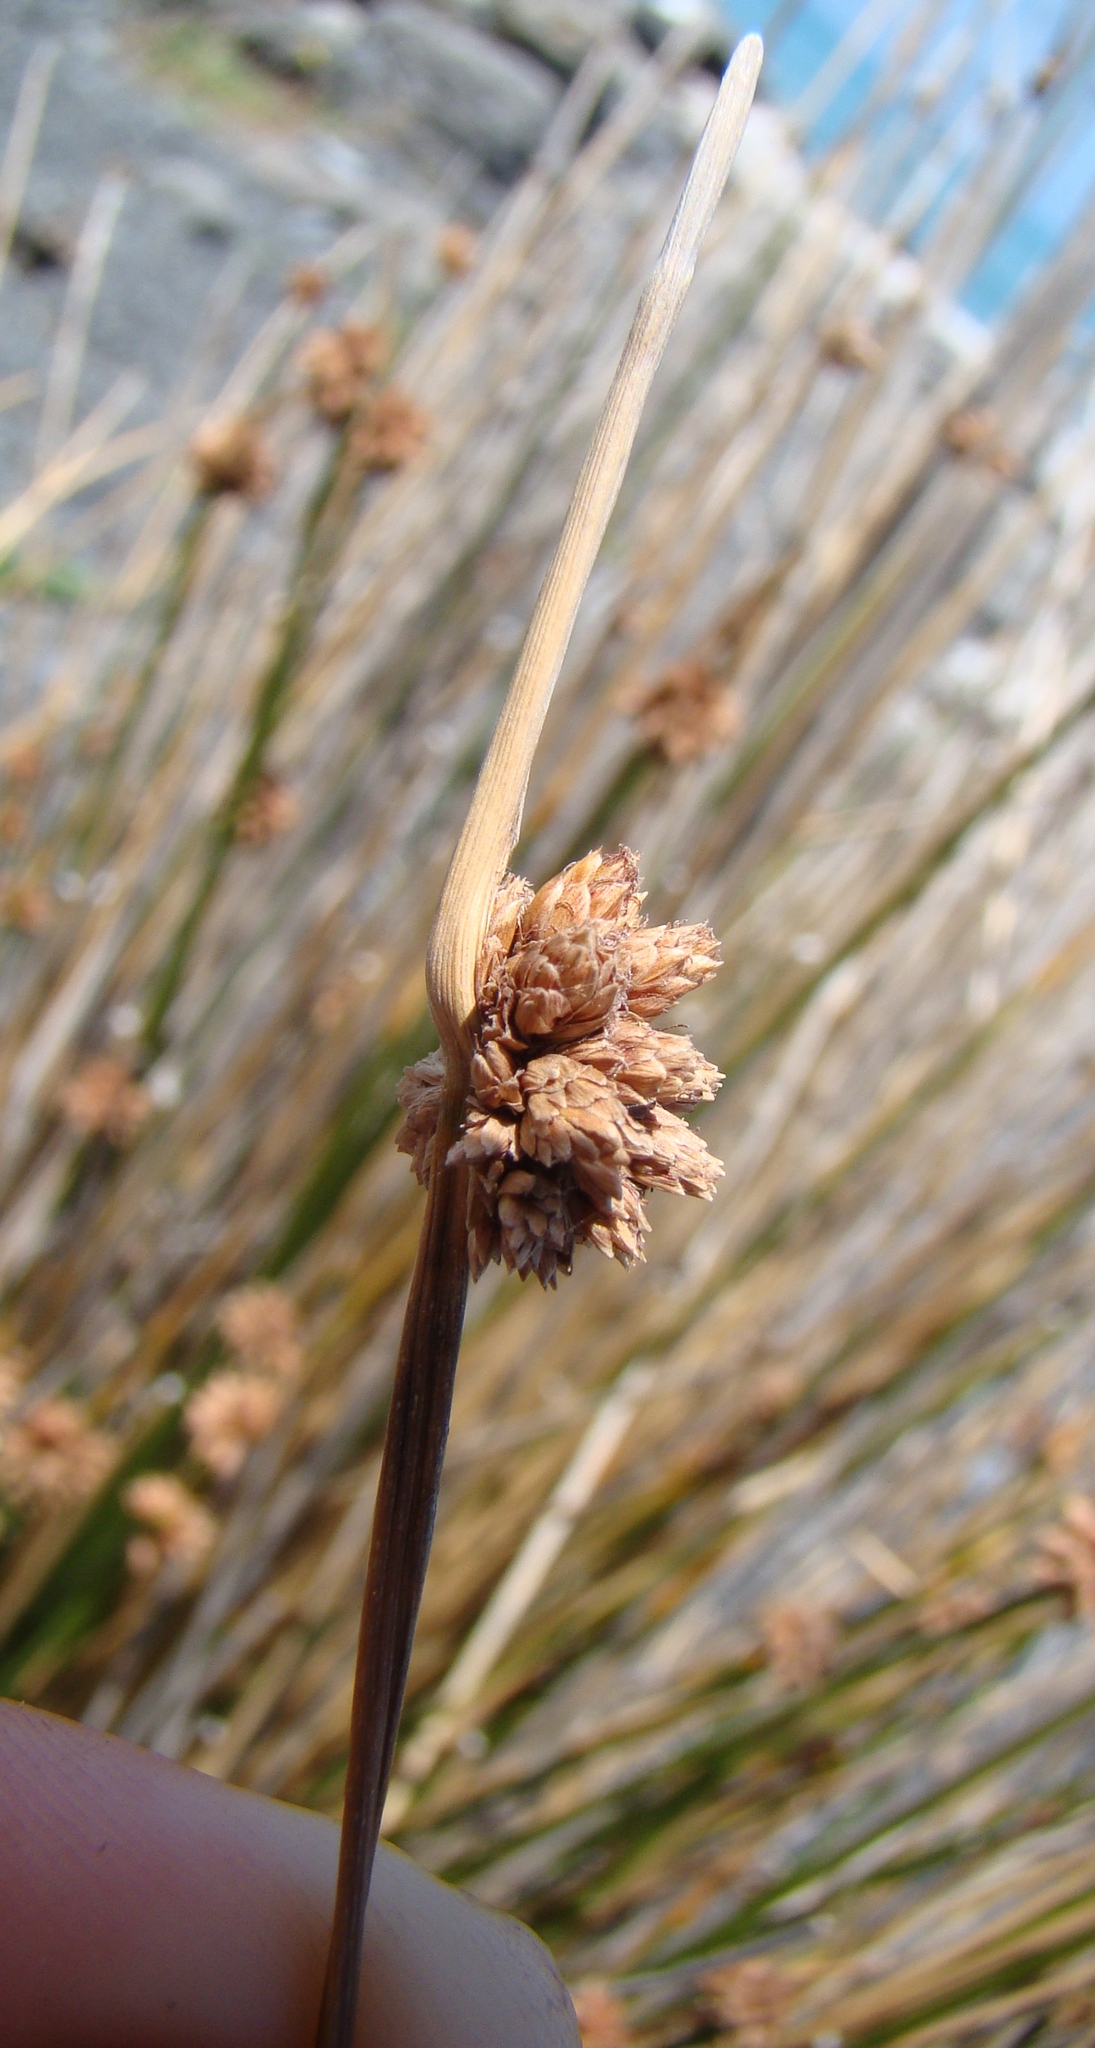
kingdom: Plantae
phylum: Tracheophyta
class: Liliopsida
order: Poales
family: Cyperaceae
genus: Ficinia
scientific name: Ficinia nodosa
